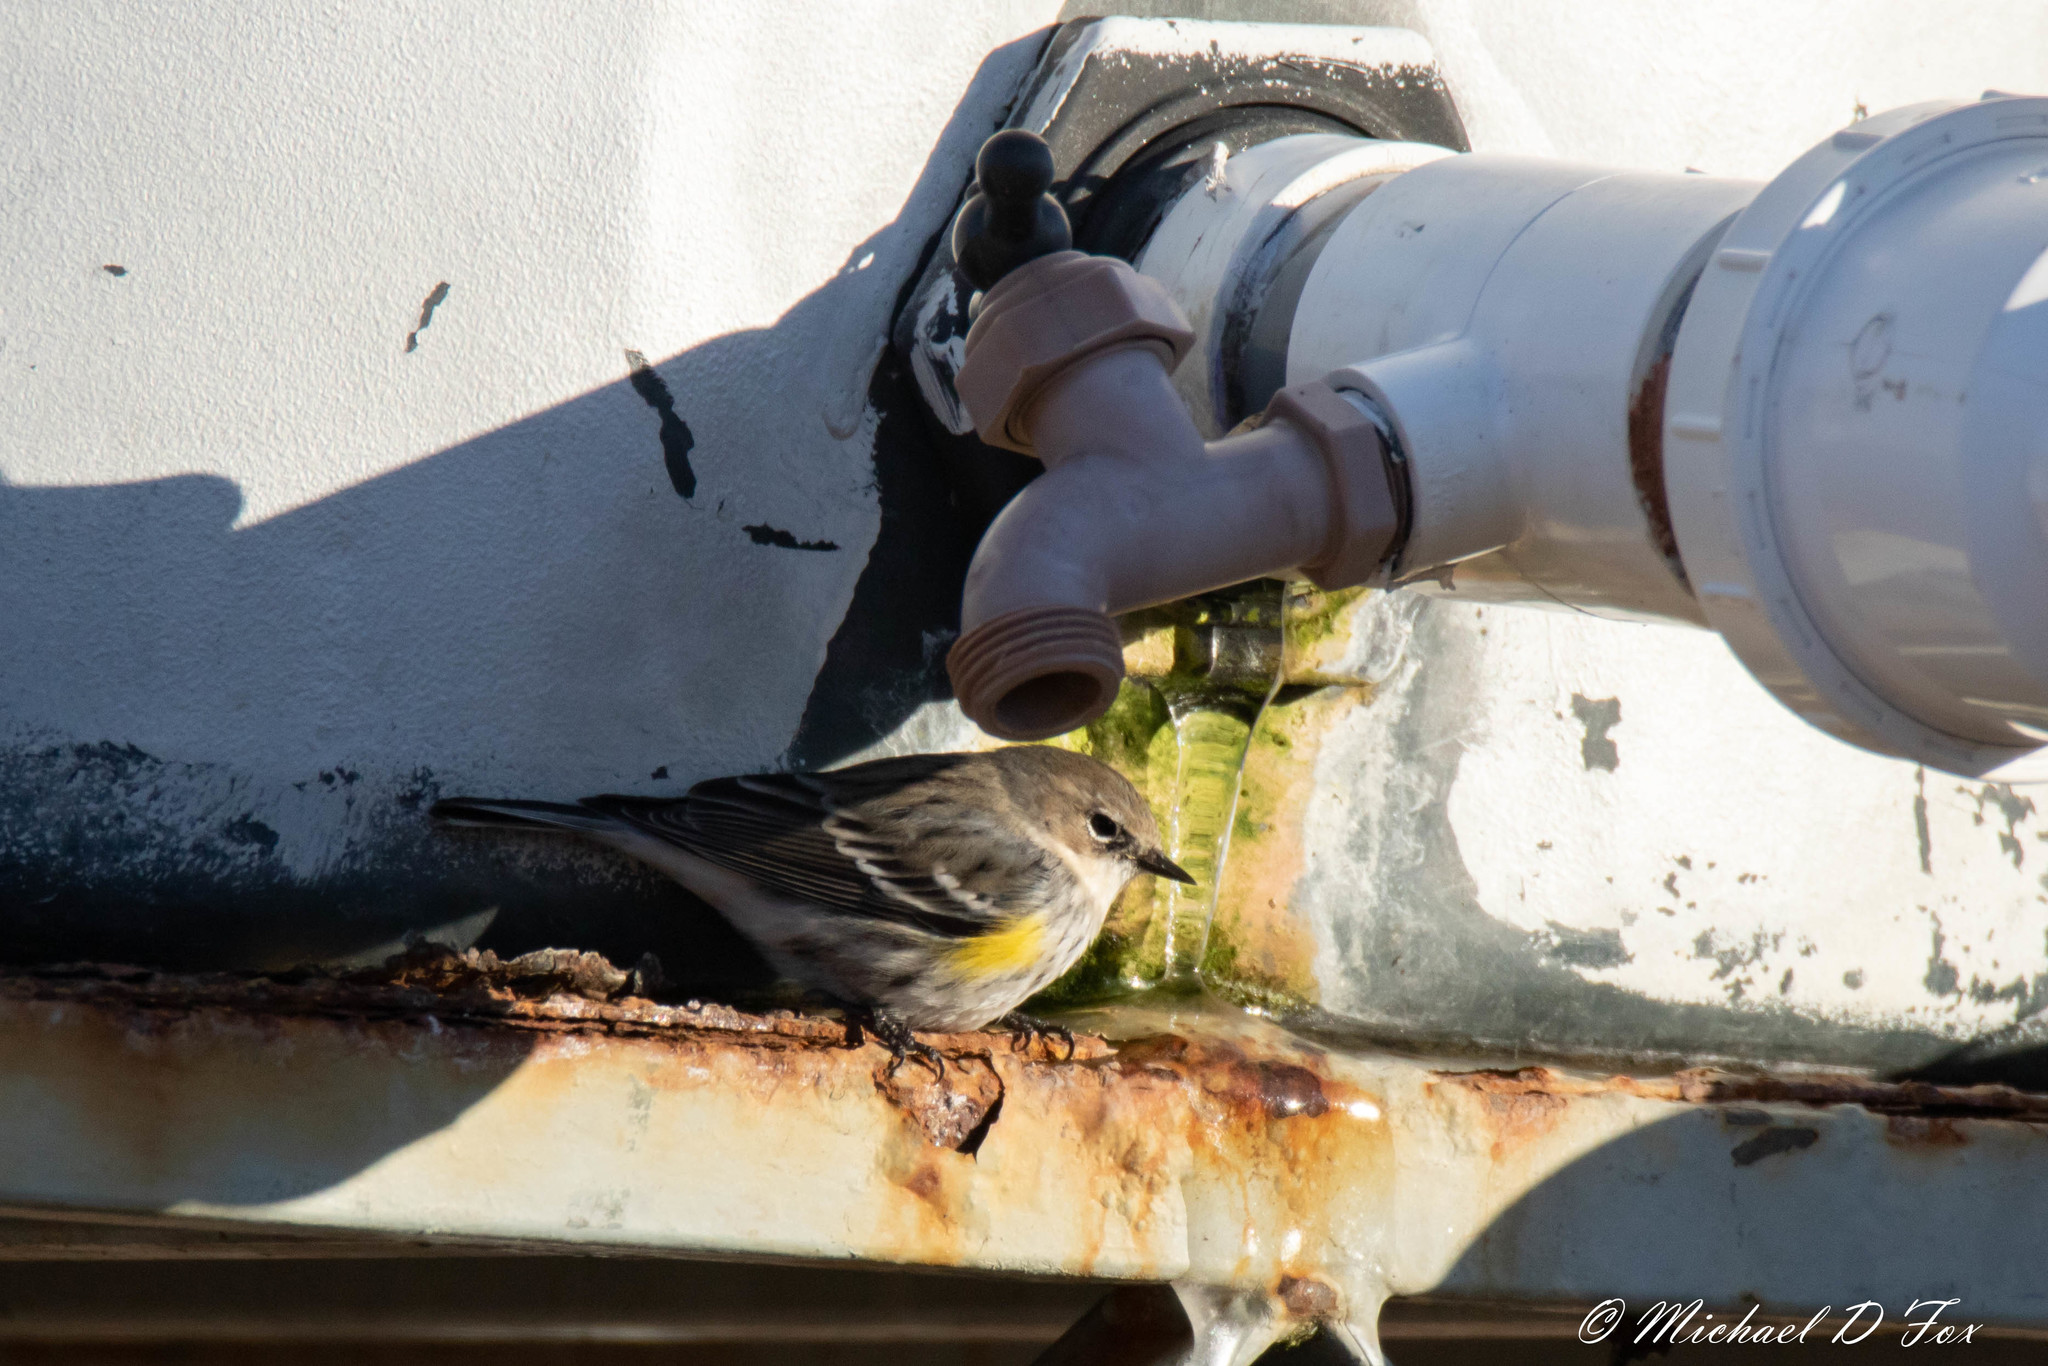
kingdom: Animalia
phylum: Chordata
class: Aves
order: Passeriformes
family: Parulidae
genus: Setophaga
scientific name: Setophaga coronata
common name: Myrtle warbler
